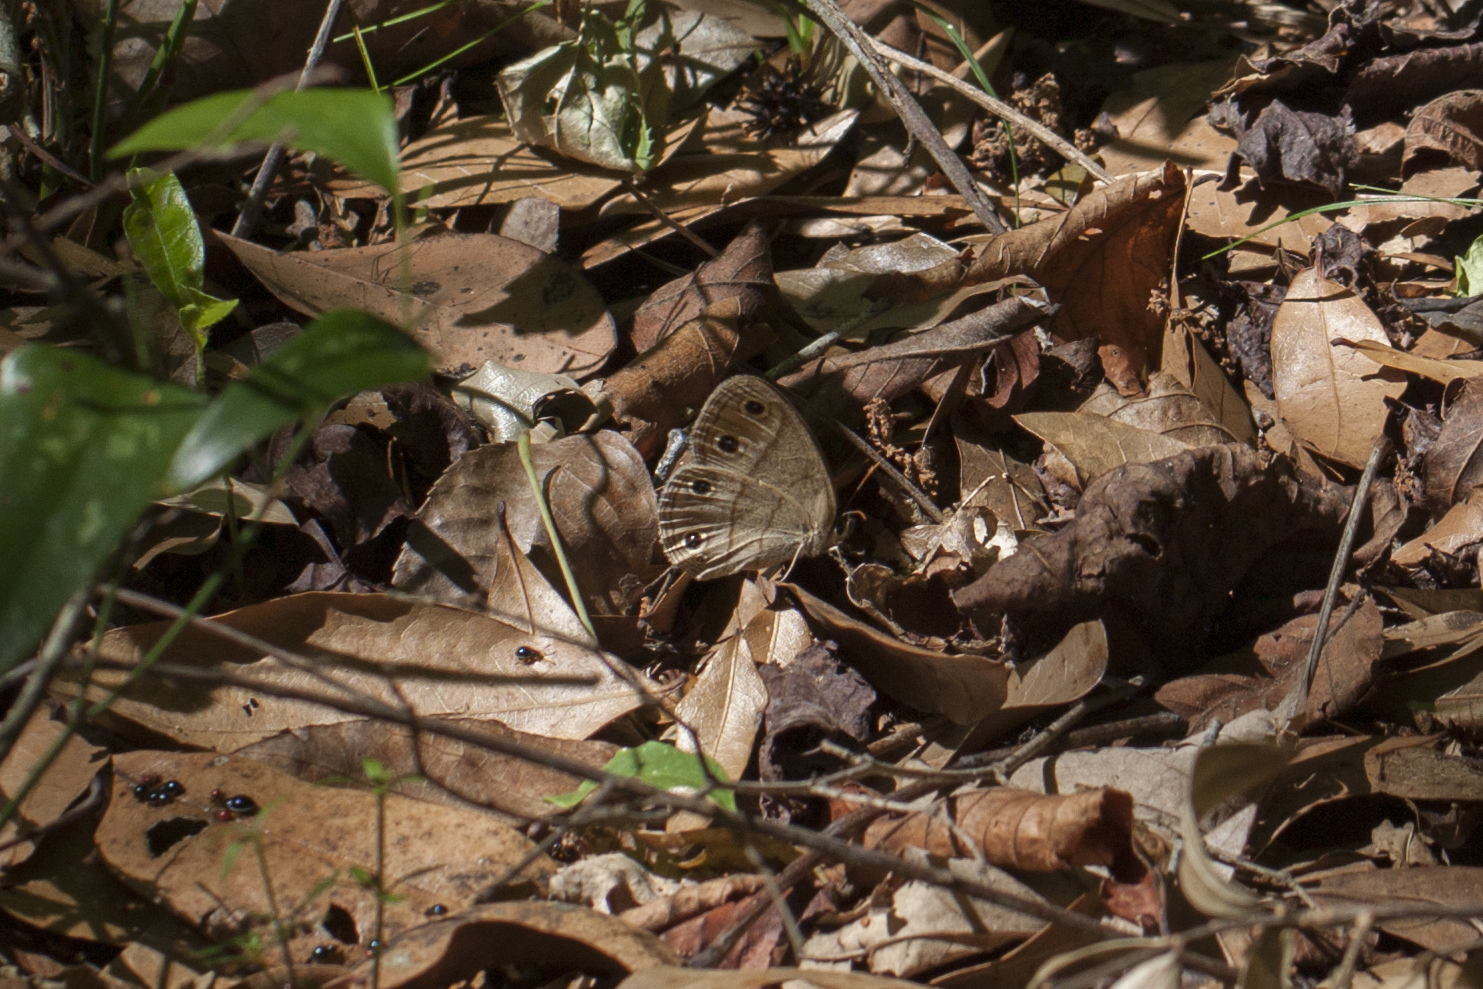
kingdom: Animalia
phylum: Arthropoda
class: Insecta
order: Lepidoptera
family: Nymphalidae
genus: Euptychia
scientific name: Euptychia cymela
